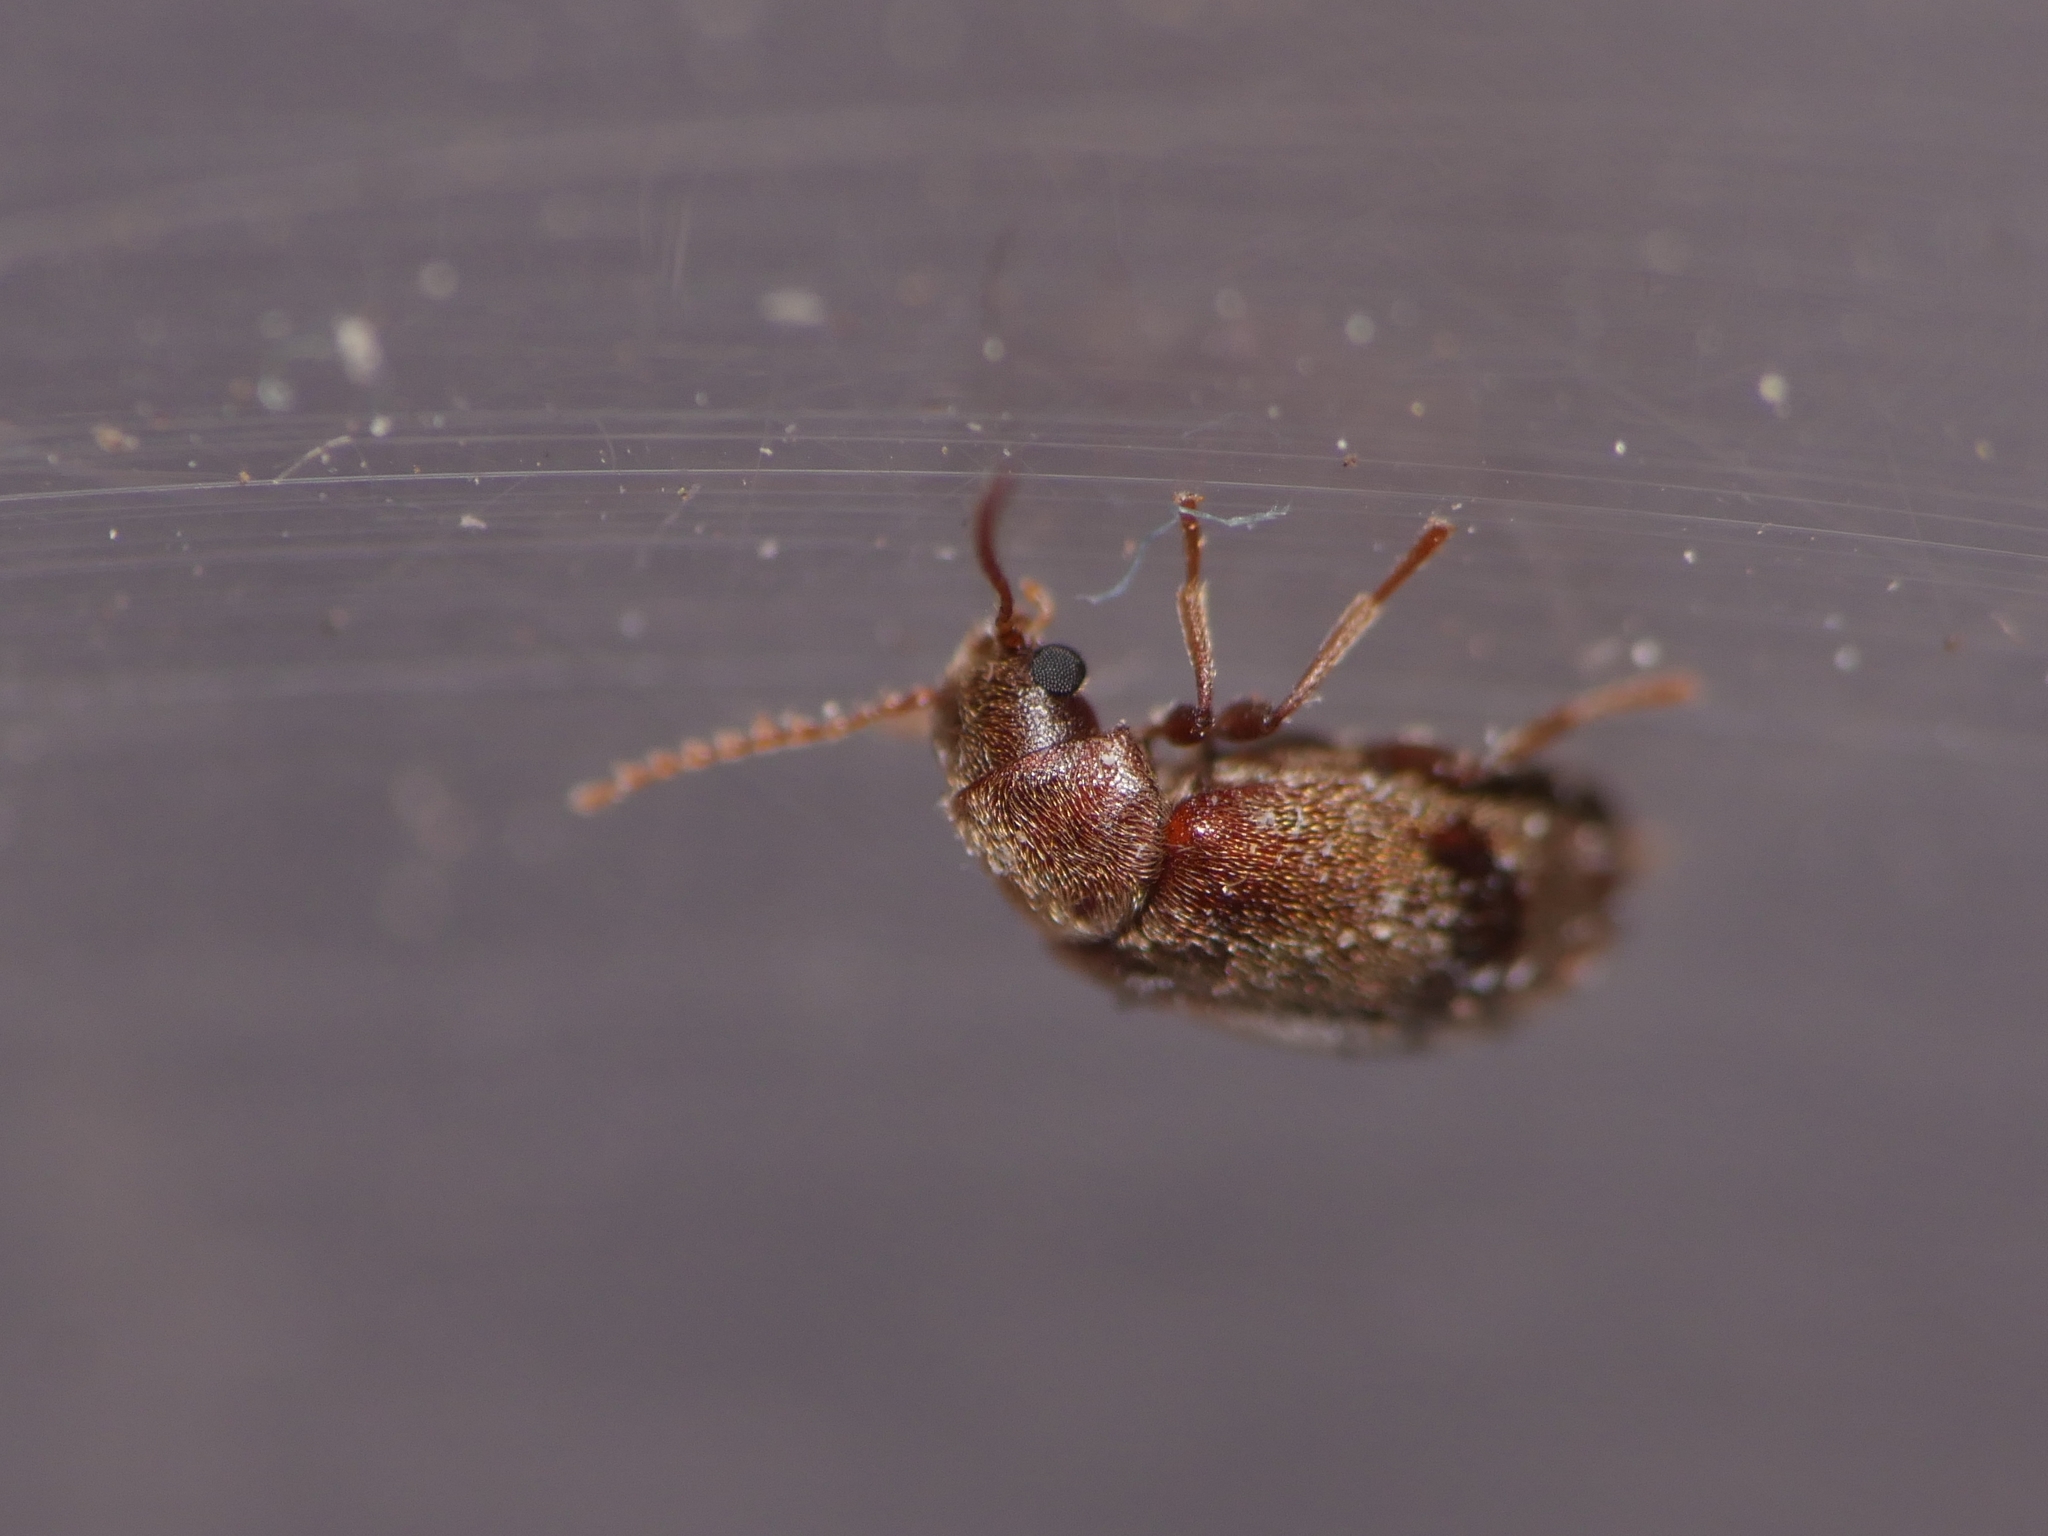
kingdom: Animalia
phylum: Arthropoda
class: Insecta
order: Coleoptera
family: Ptinidae
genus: Ochina
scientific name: Ochina ptinoides
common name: Ivy boring beetle
